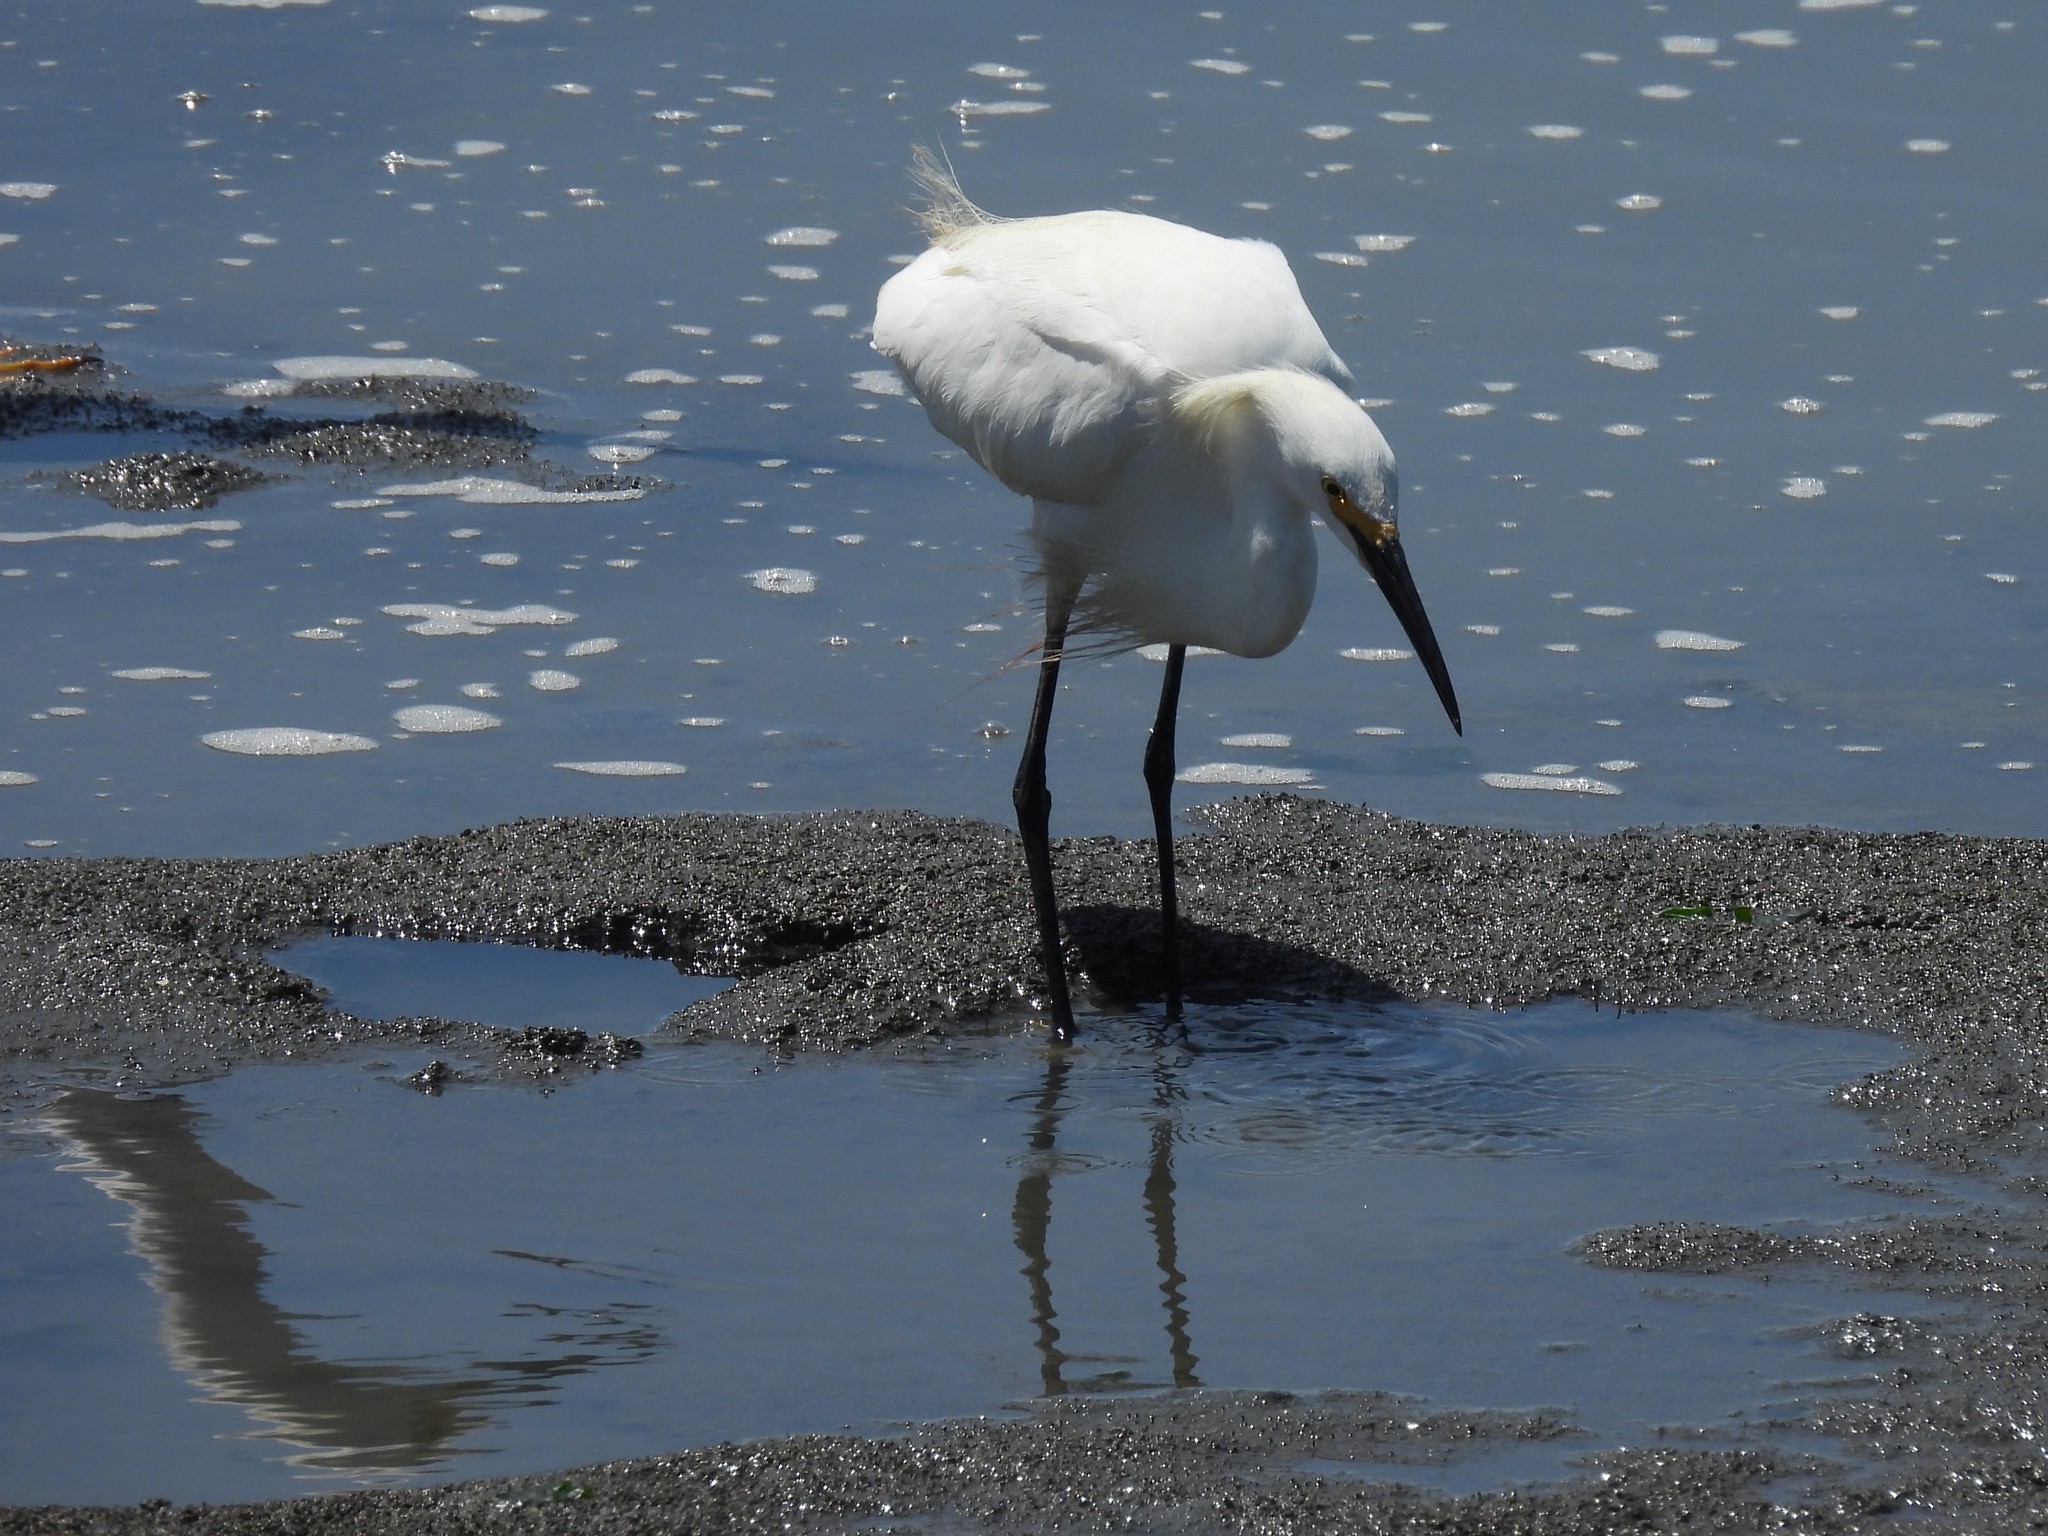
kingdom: Animalia
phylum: Chordata
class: Aves
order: Pelecaniformes
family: Ardeidae
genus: Egretta
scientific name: Egretta thula
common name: Snowy egret
